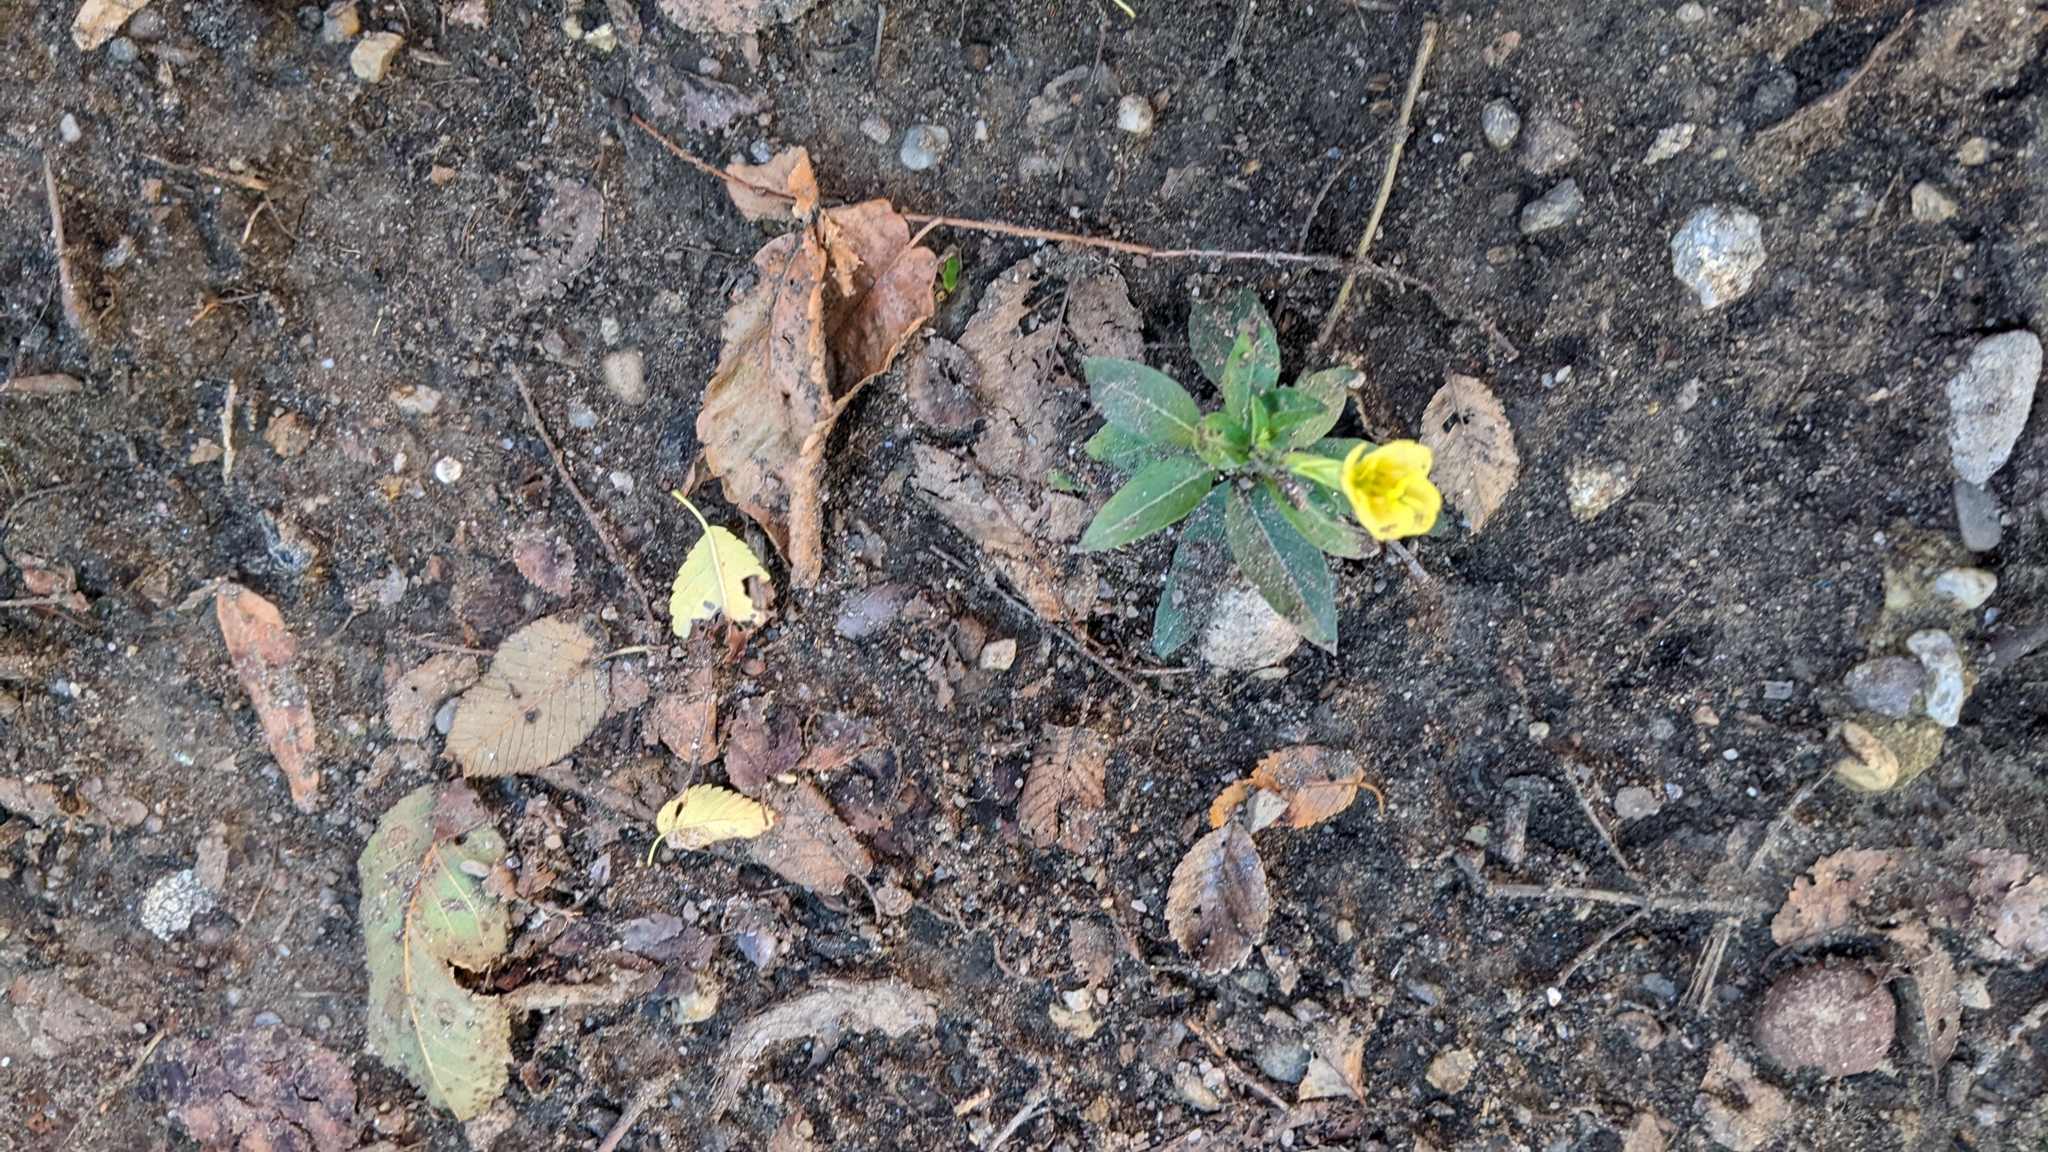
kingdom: Plantae
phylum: Tracheophyta
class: Magnoliopsida
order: Myrtales
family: Onagraceae
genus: Oenothera
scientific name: Oenothera biennis
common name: Common evening-primrose
